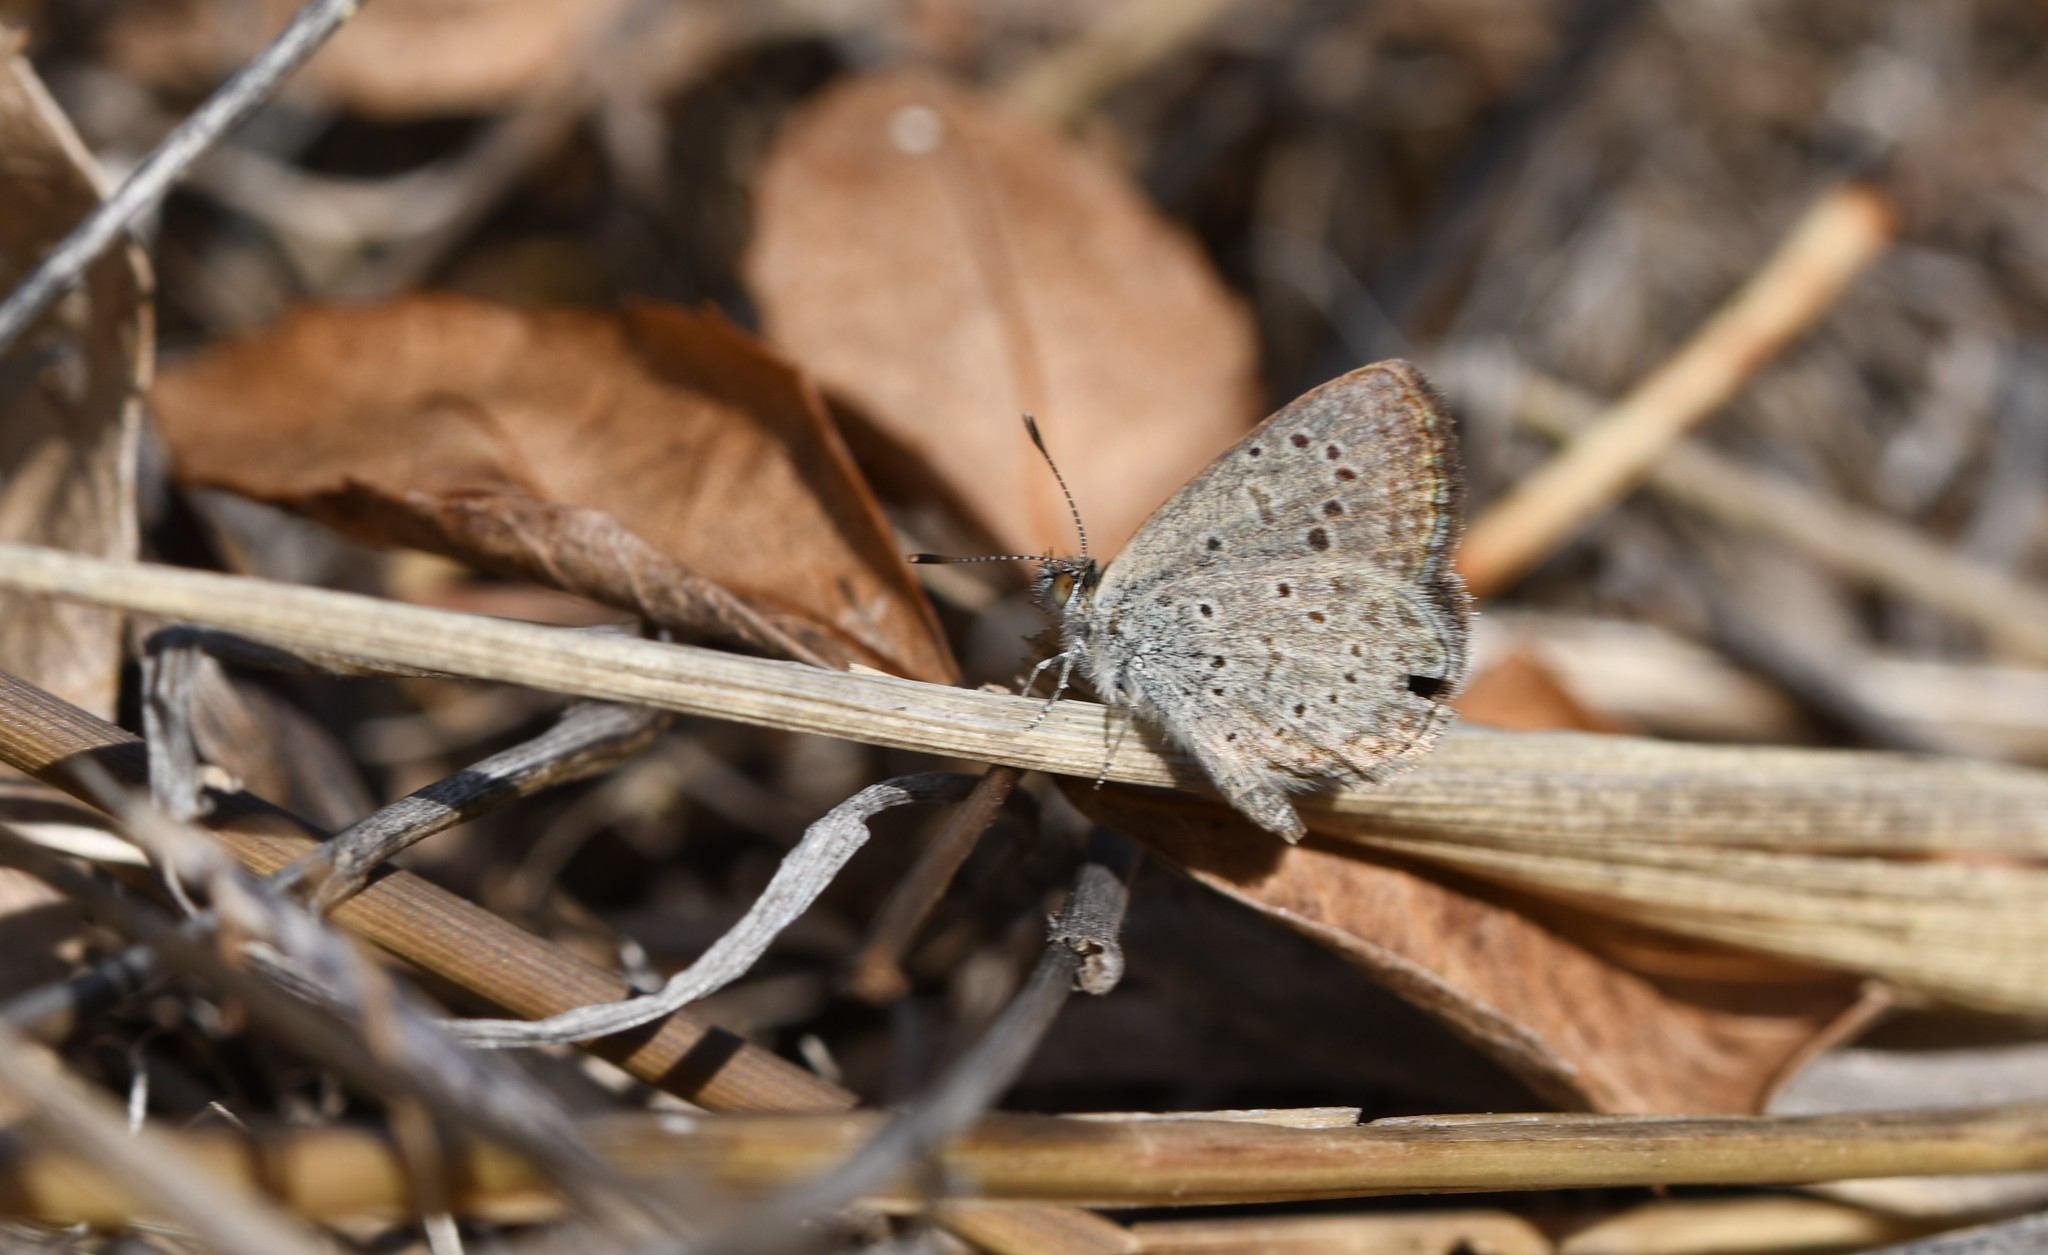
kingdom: Animalia
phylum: Arthropoda
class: Insecta
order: Lepidoptera
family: Lycaenidae
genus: Zizeeria
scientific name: Zizeeria knysna
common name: African grass blue
